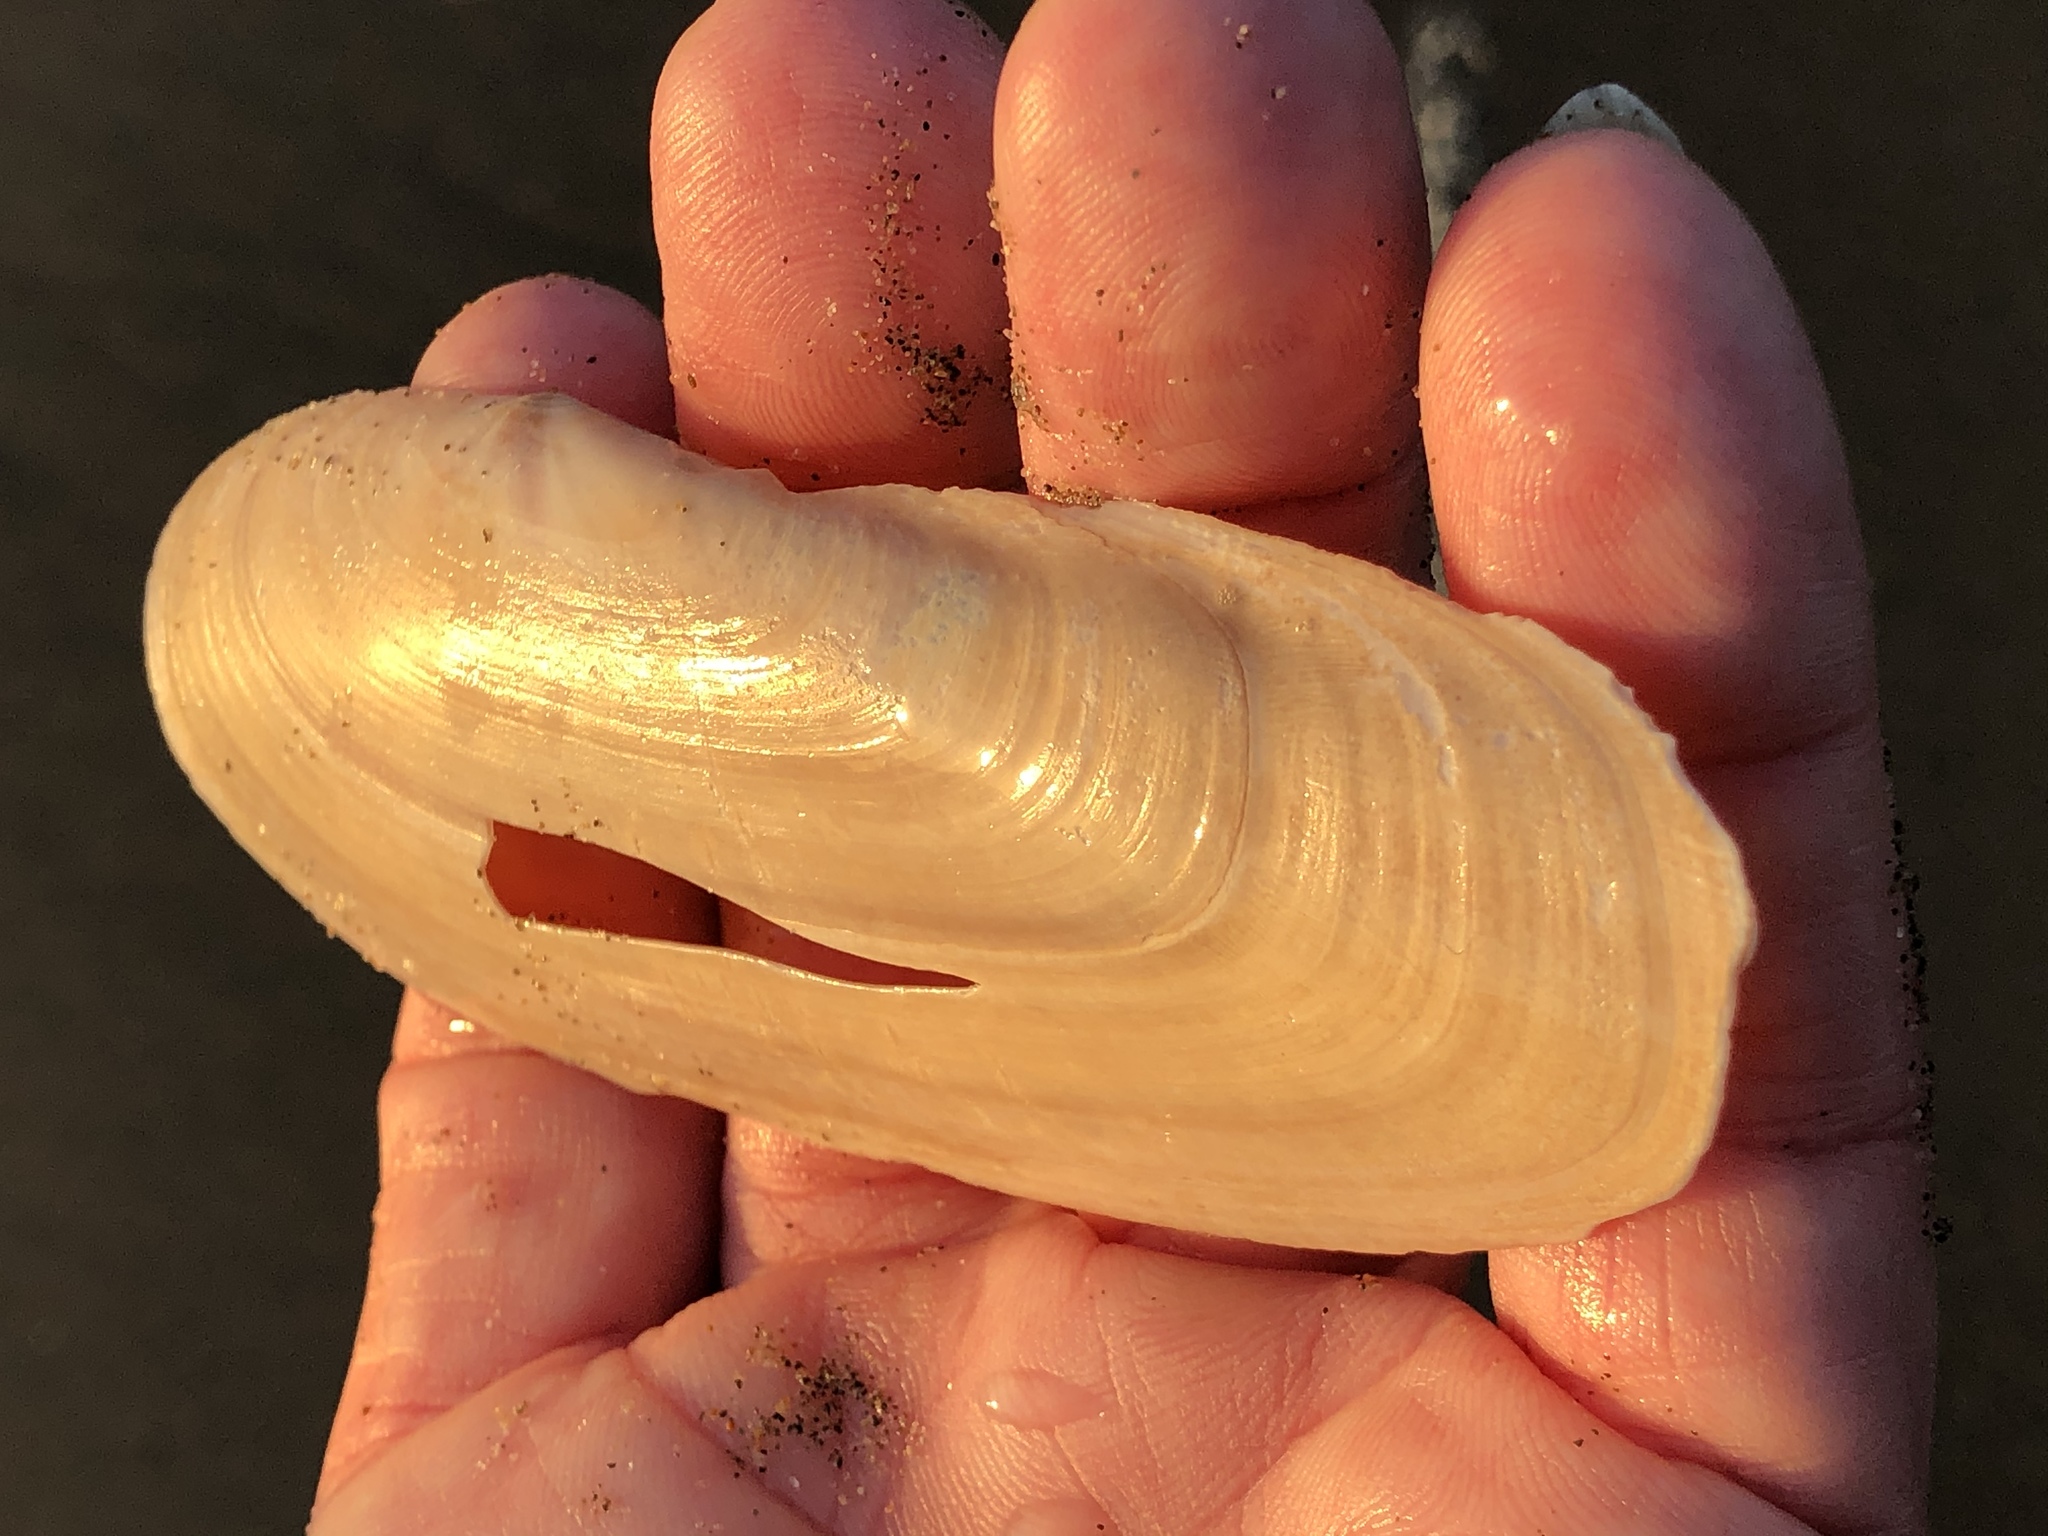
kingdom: Animalia
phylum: Mollusca
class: Bivalvia
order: Adapedonta
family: Pharidae
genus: Siliqua
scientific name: Siliqua patula
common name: Pacific razor clam
